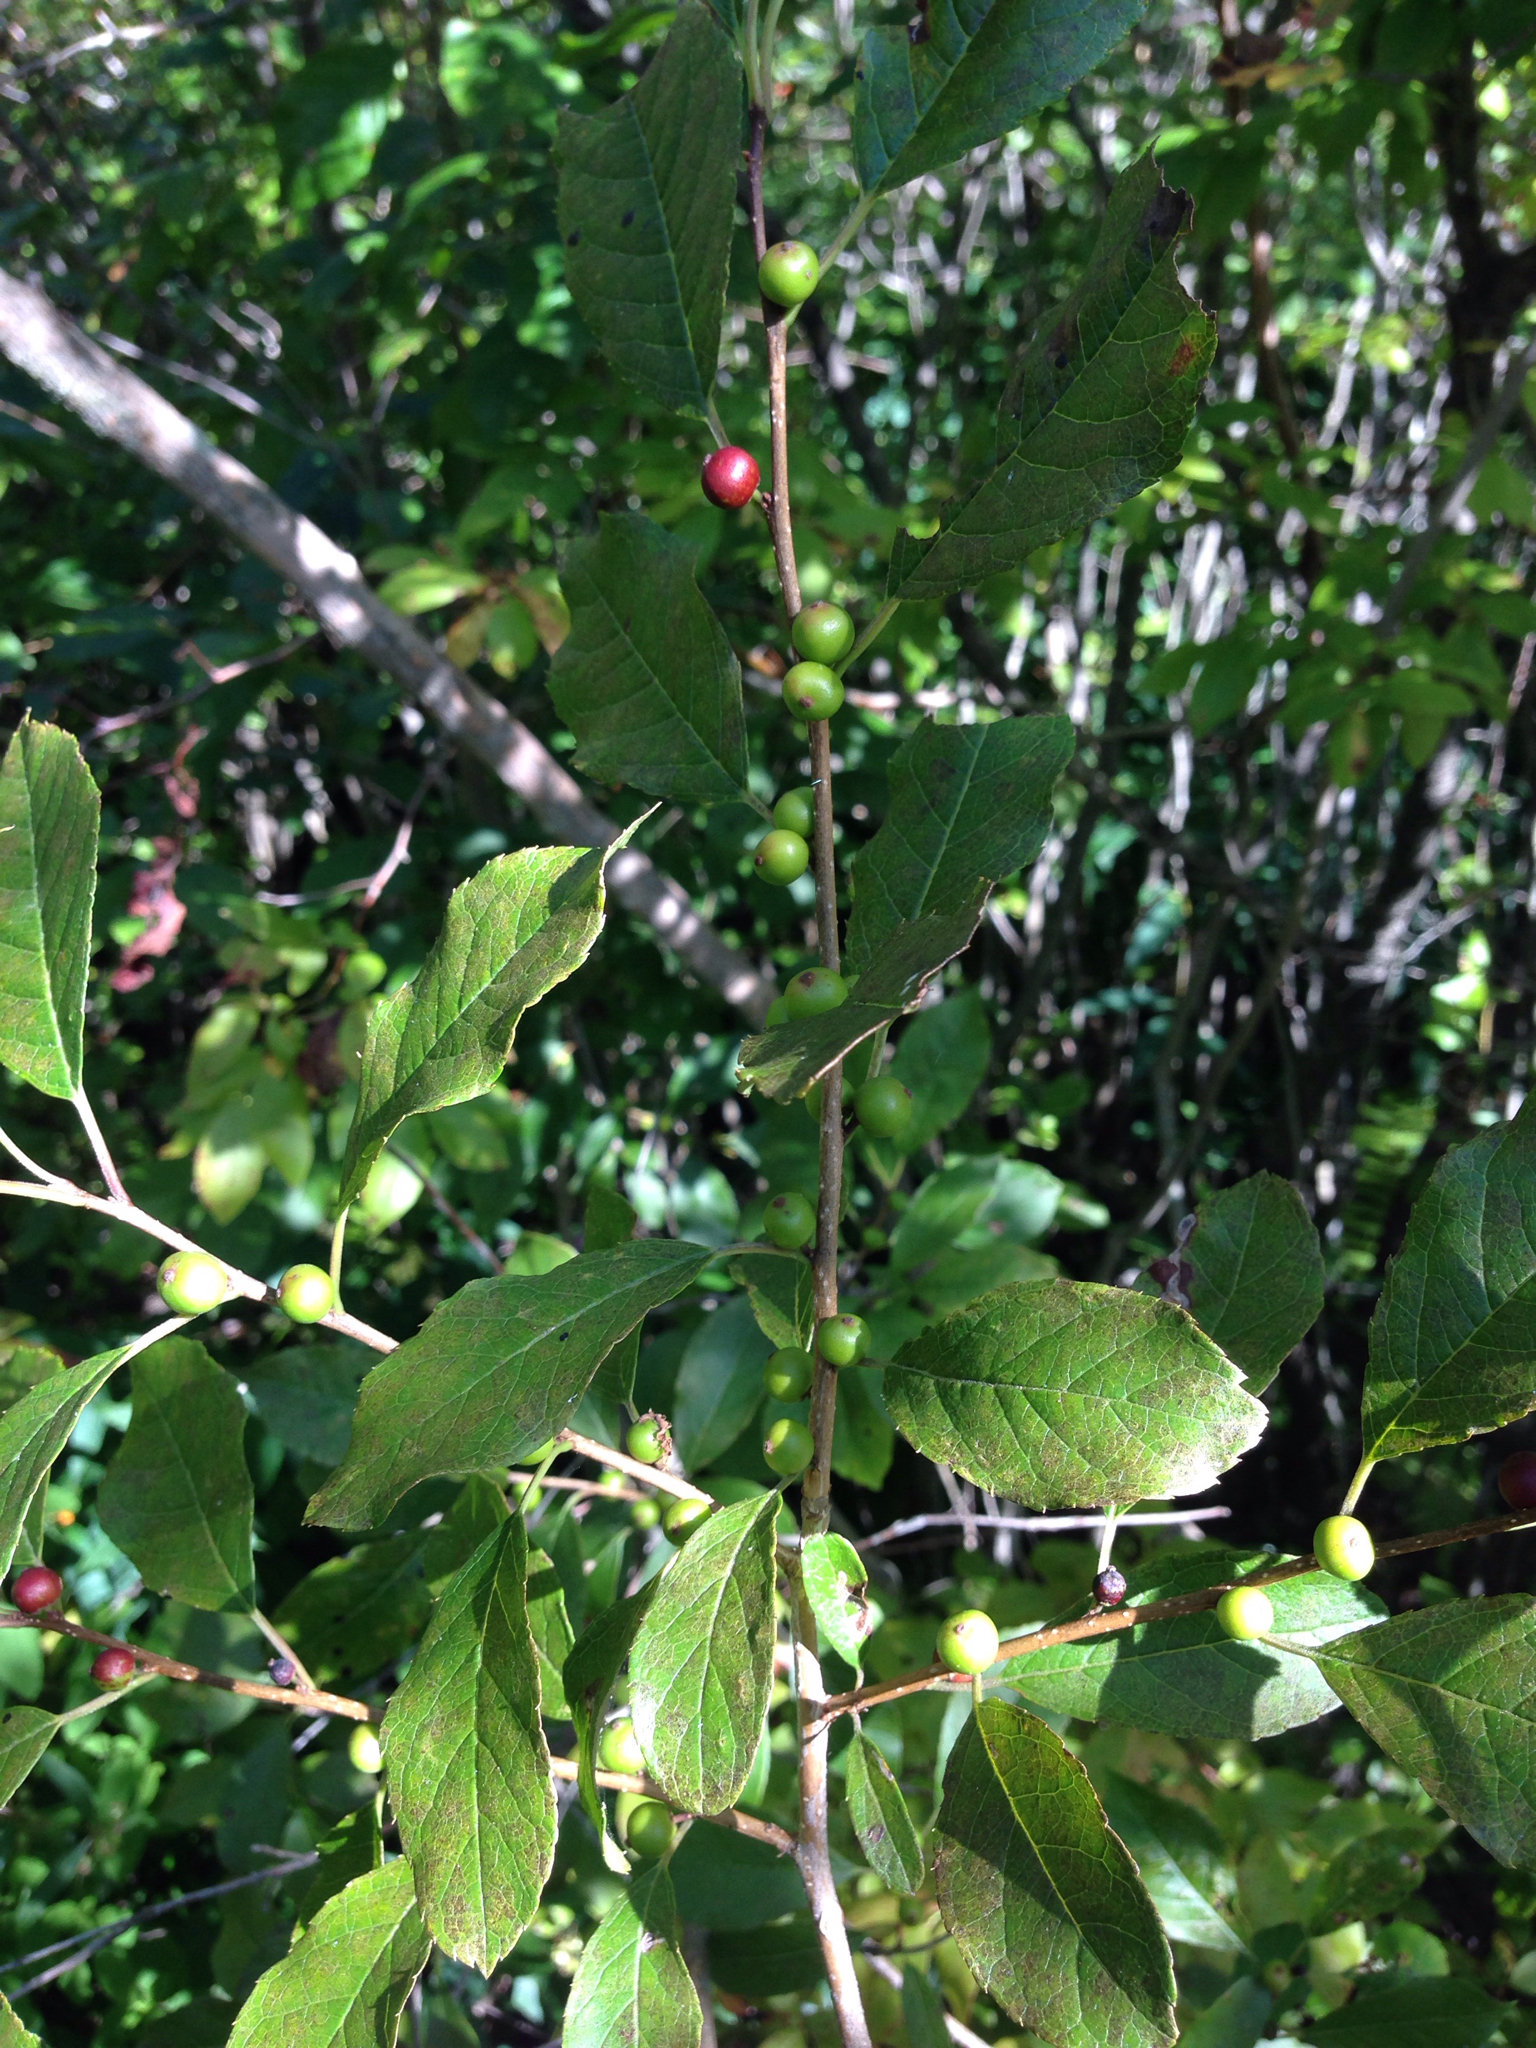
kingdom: Plantae
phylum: Tracheophyta
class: Magnoliopsida
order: Aquifoliales
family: Aquifoliaceae
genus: Ilex
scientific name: Ilex verticillata
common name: Virginia winterberry
